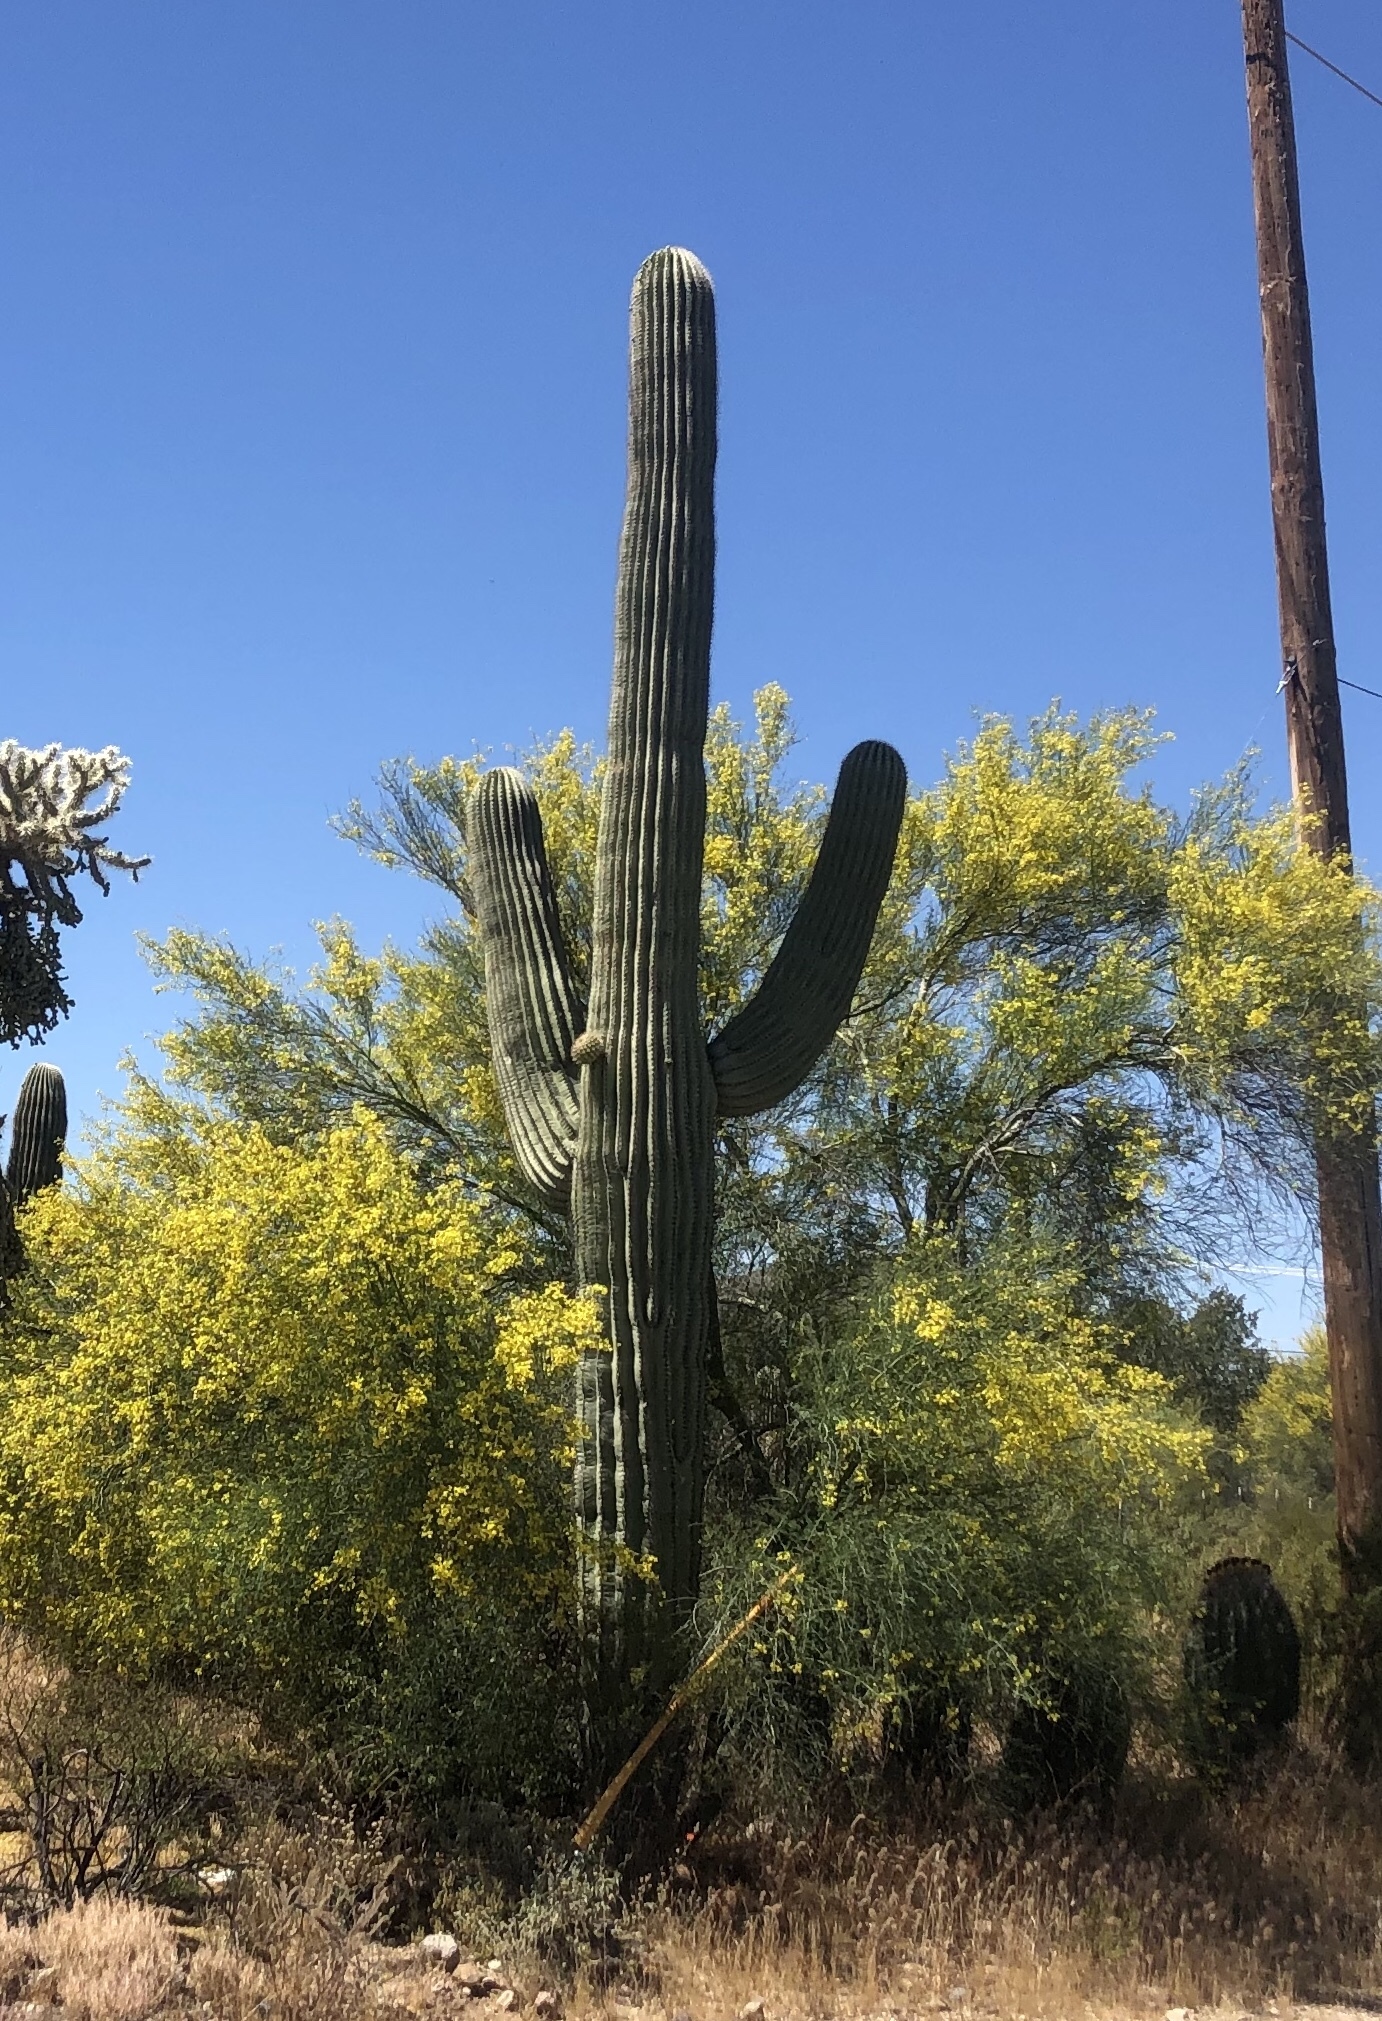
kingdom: Plantae
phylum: Tracheophyta
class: Magnoliopsida
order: Caryophyllales
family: Cactaceae
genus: Carnegiea
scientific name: Carnegiea gigantea
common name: Saguaro
